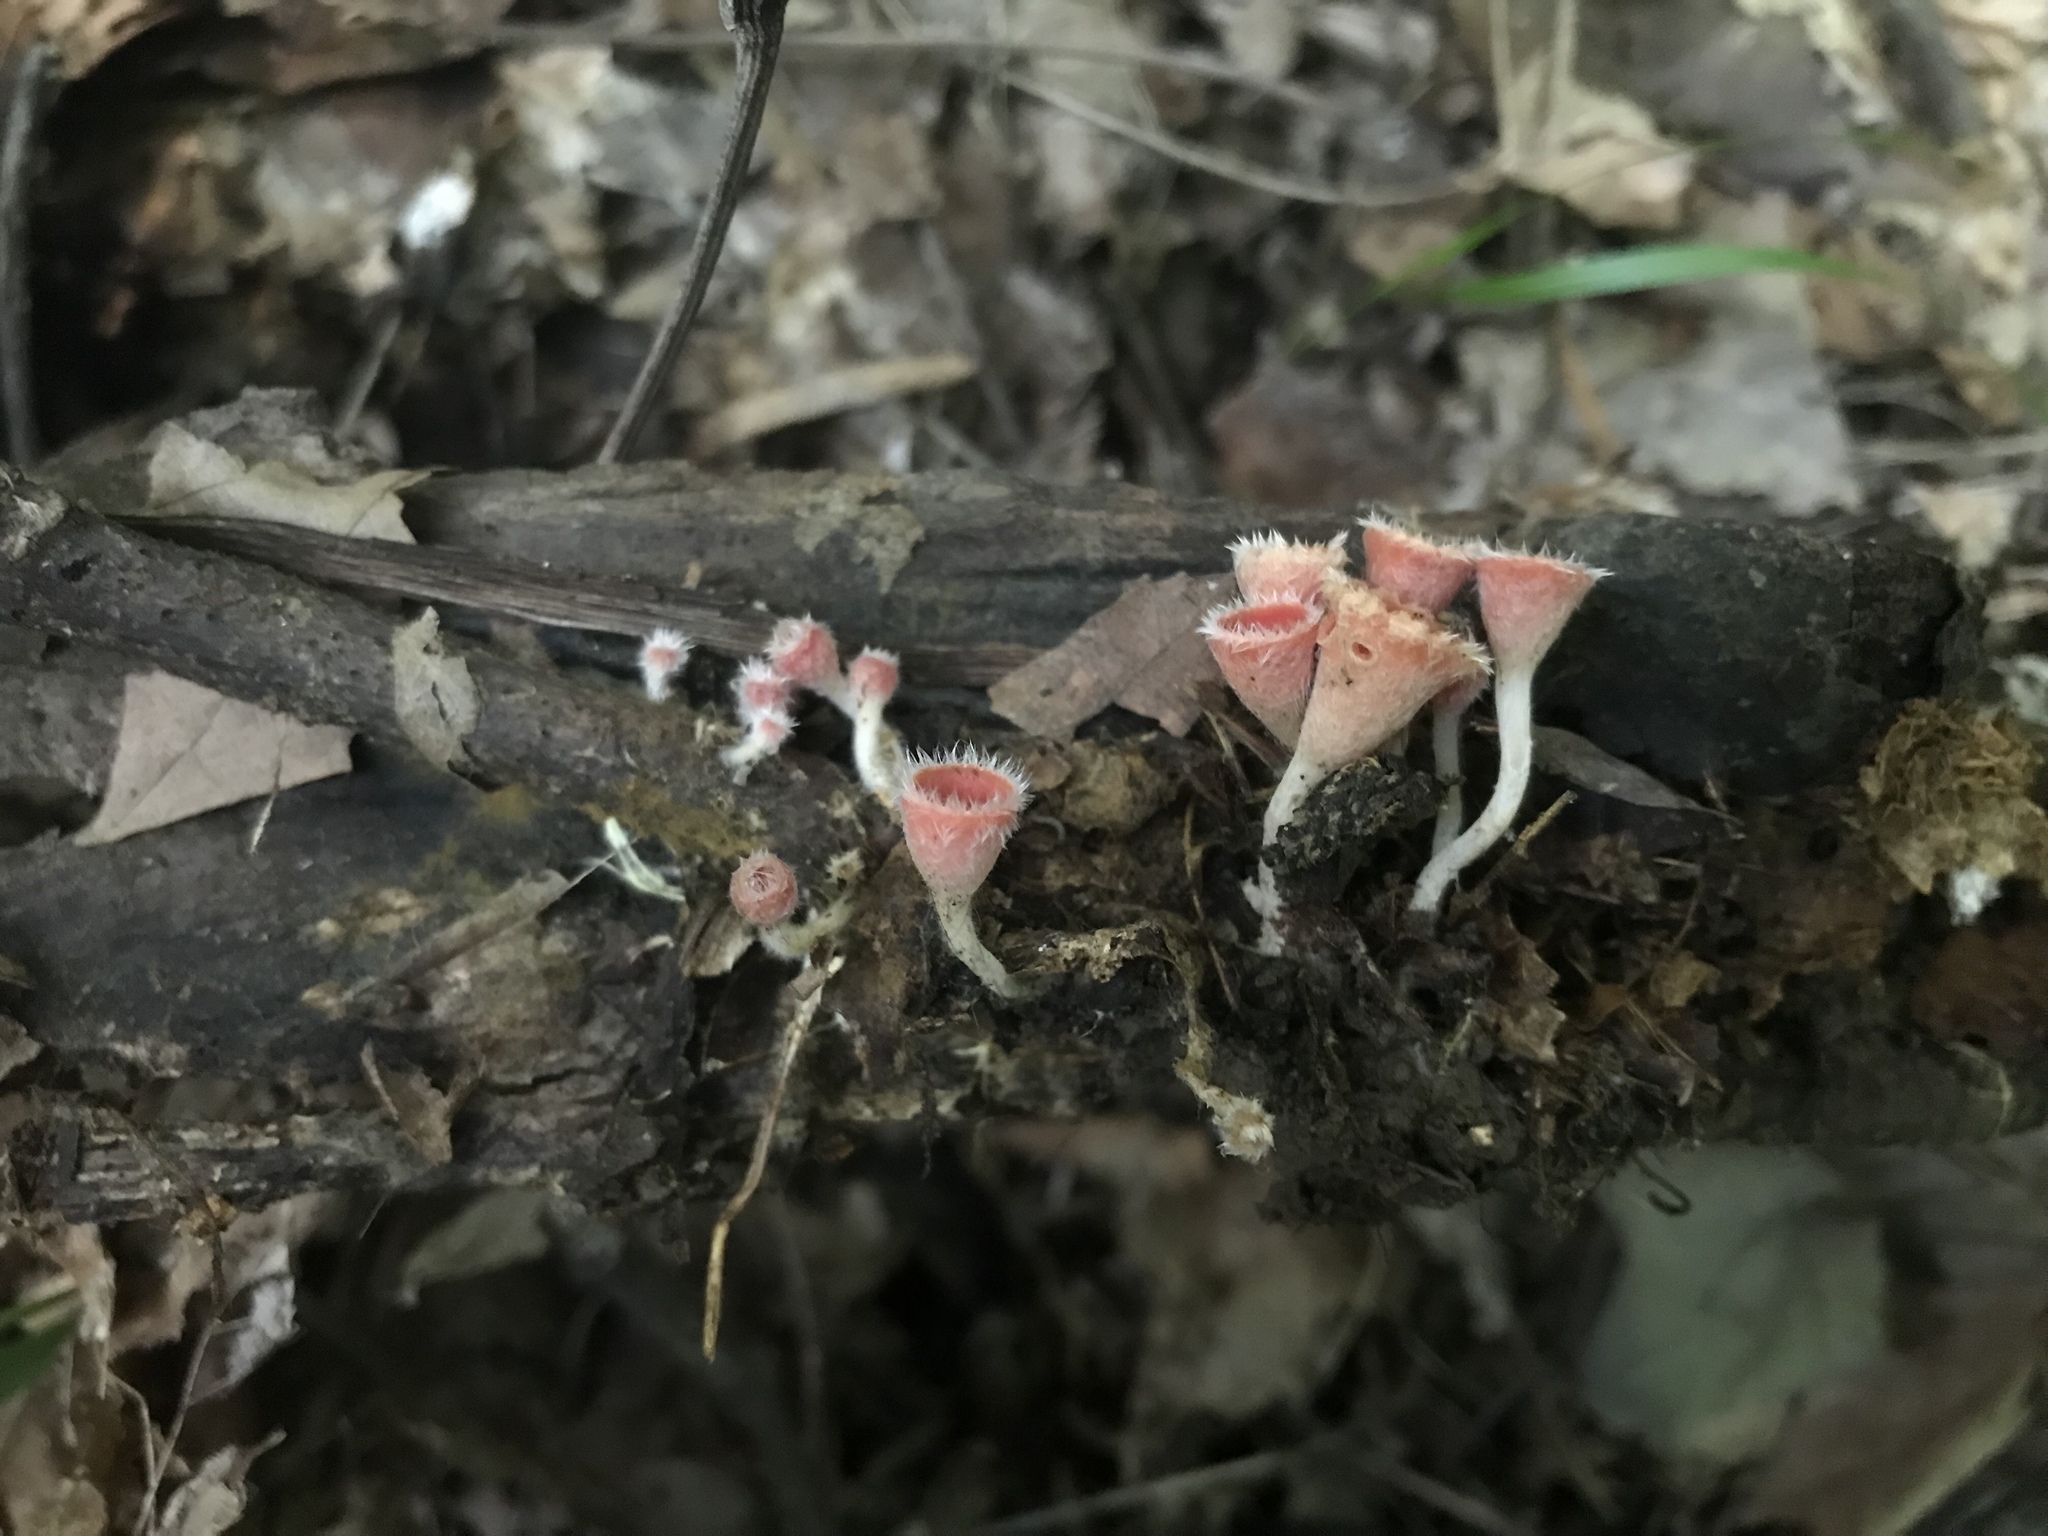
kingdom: Fungi
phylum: Ascomycota
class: Pezizomycetes
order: Pezizales
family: Sarcoscyphaceae
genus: Microstoma
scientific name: Microstoma floccosum
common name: Pink fringed faery cup
